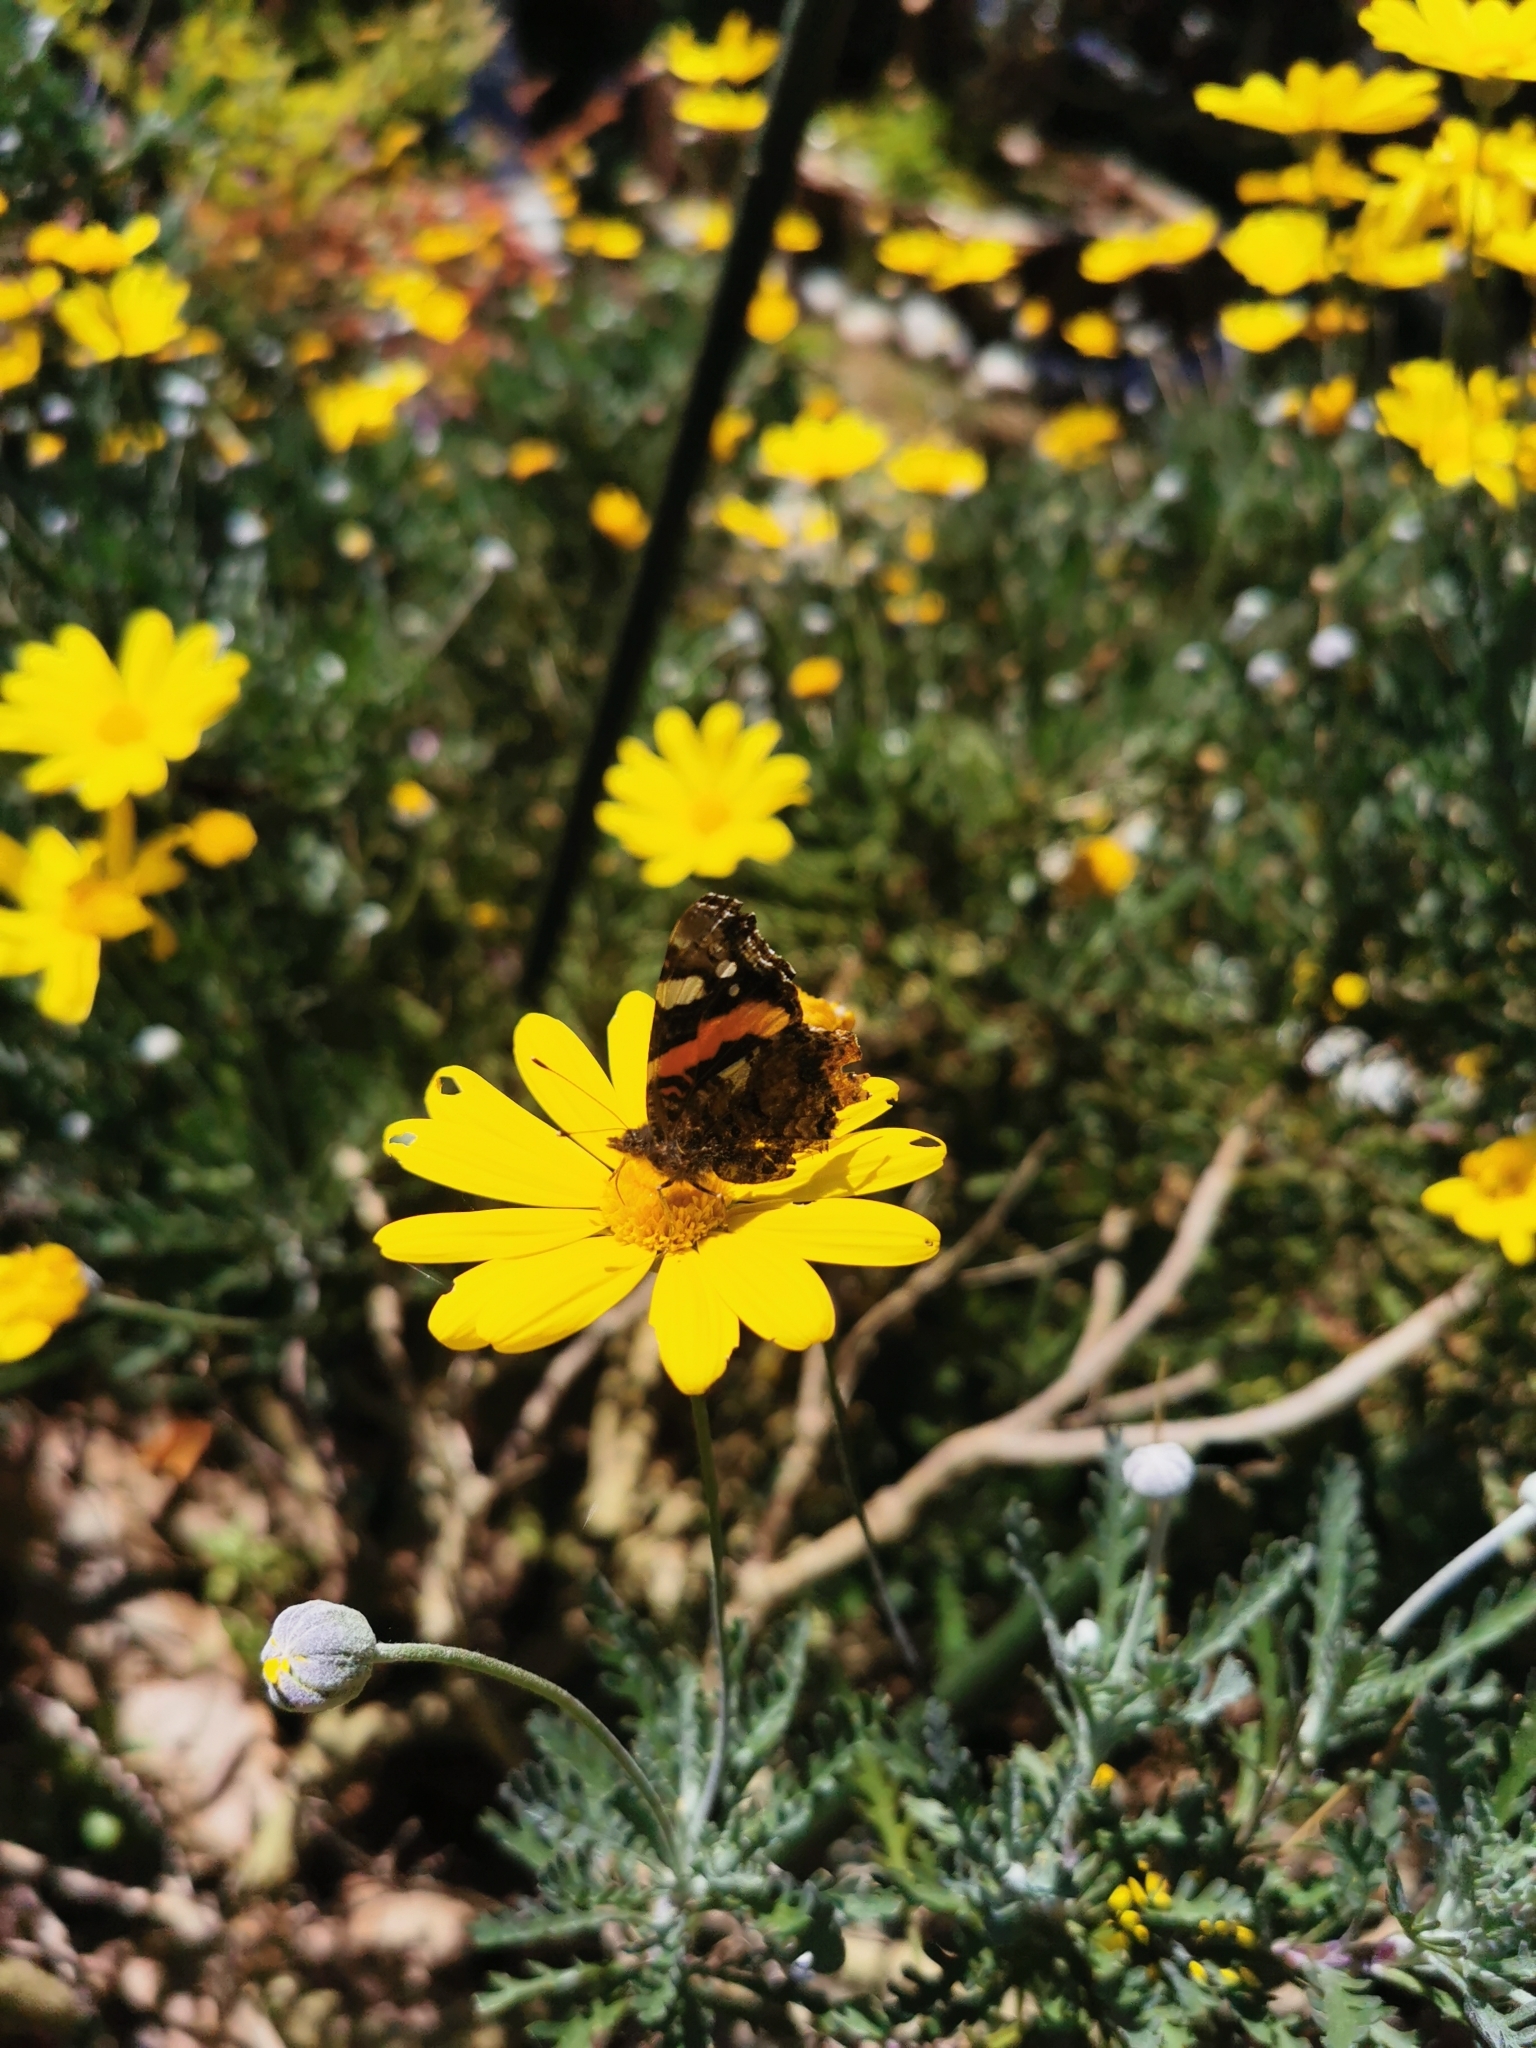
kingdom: Animalia
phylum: Arthropoda
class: Insecta
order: Lepidoptera
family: Nymphalidae
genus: Vanessa
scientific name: Vanessa atalanta
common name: Red admiral
